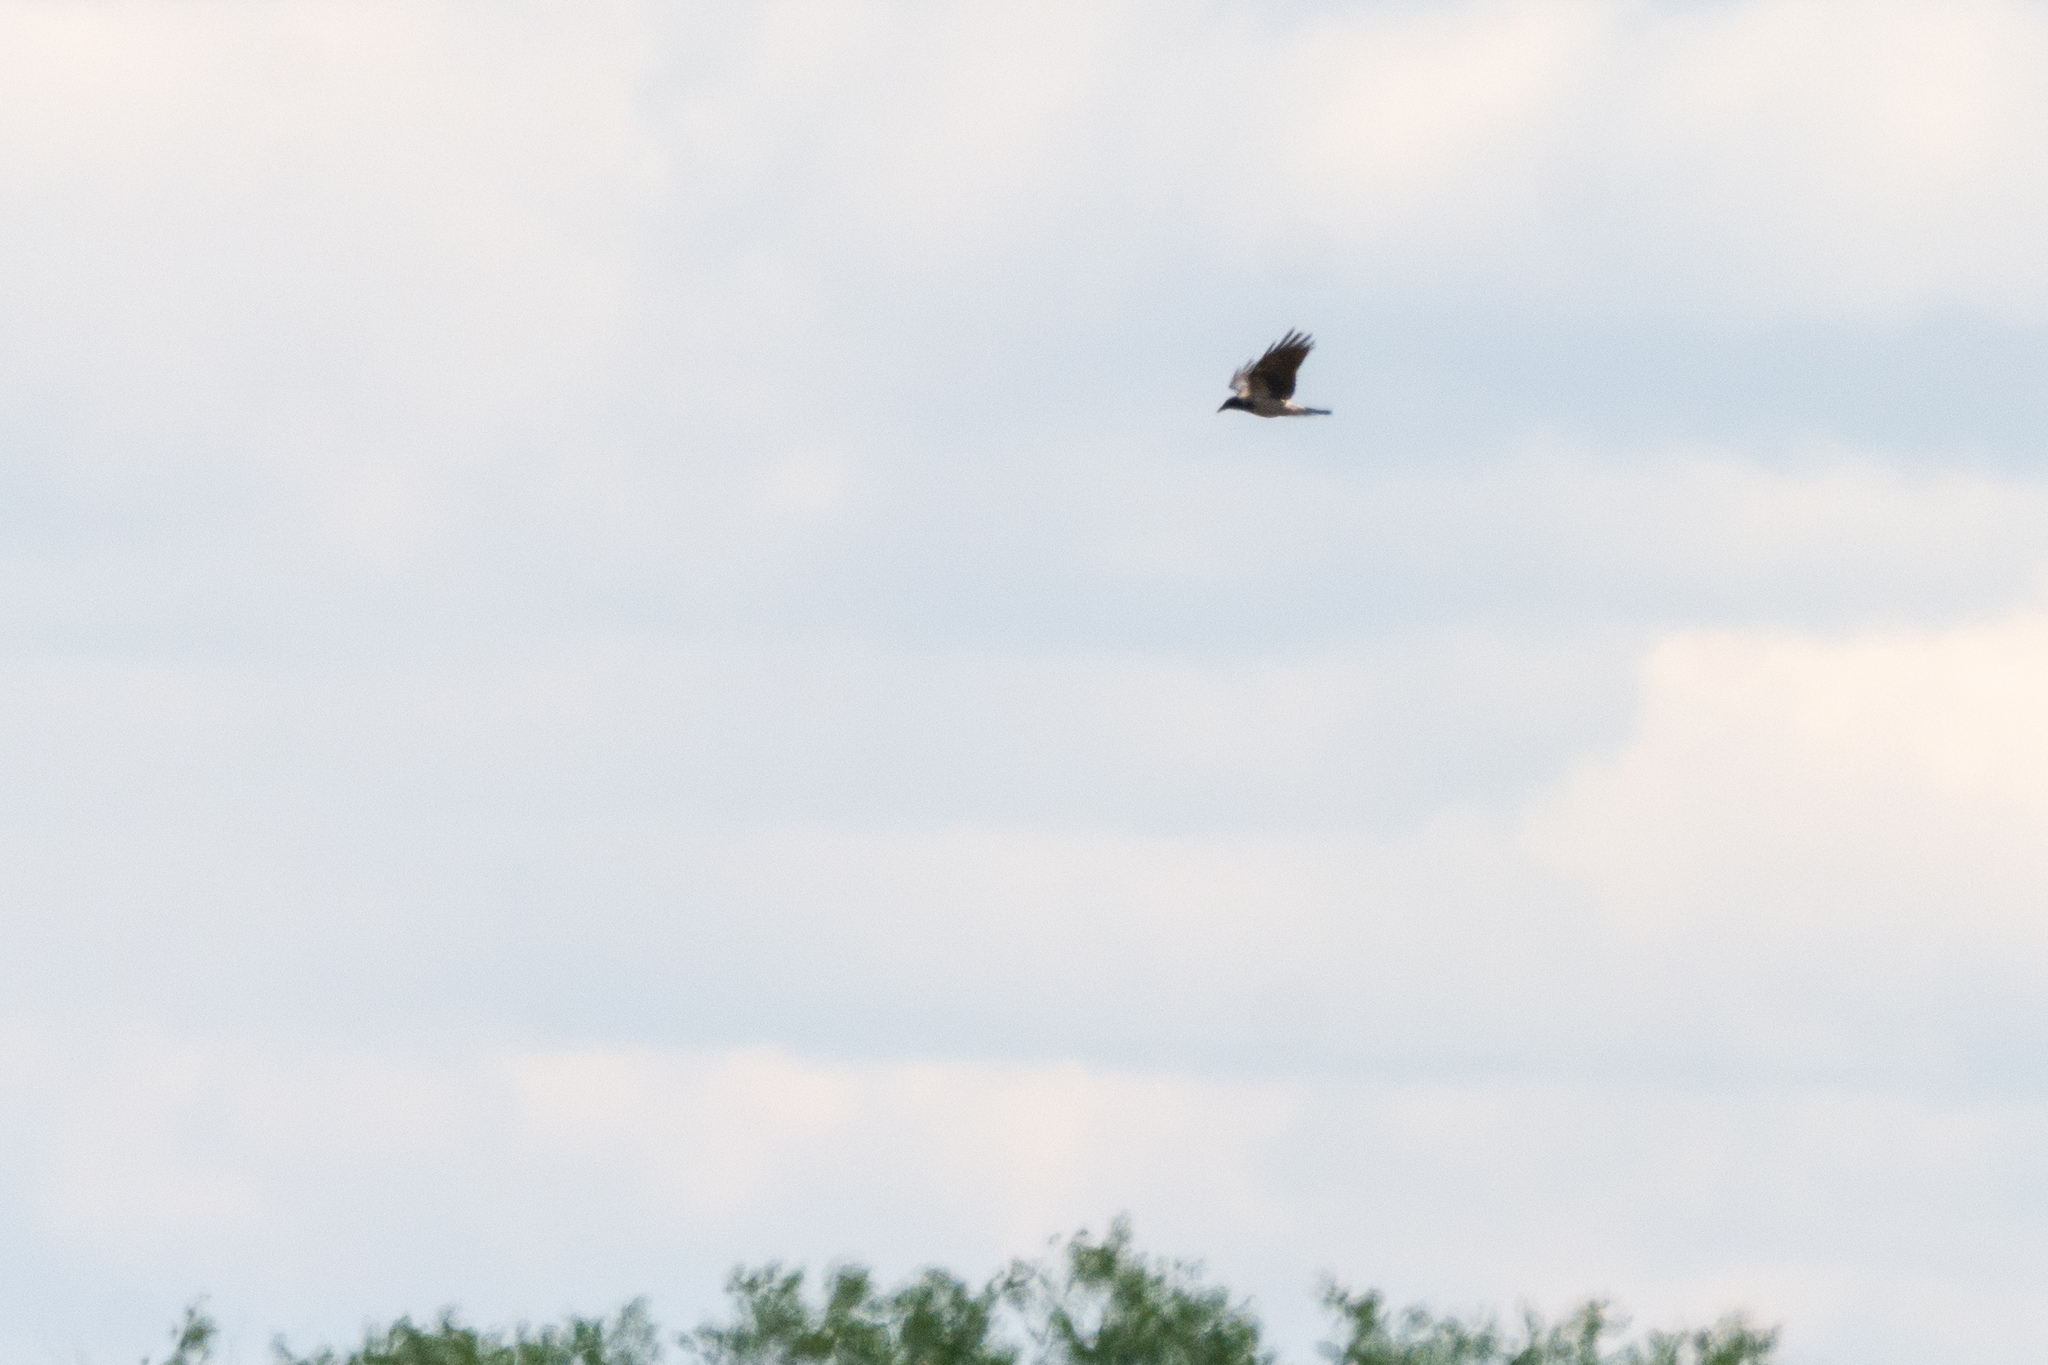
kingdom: Animalia
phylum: Chordata
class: Aves
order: Passeriformes
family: Corvidae
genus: Corvus
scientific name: Corvus cornix
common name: Hooded crow
